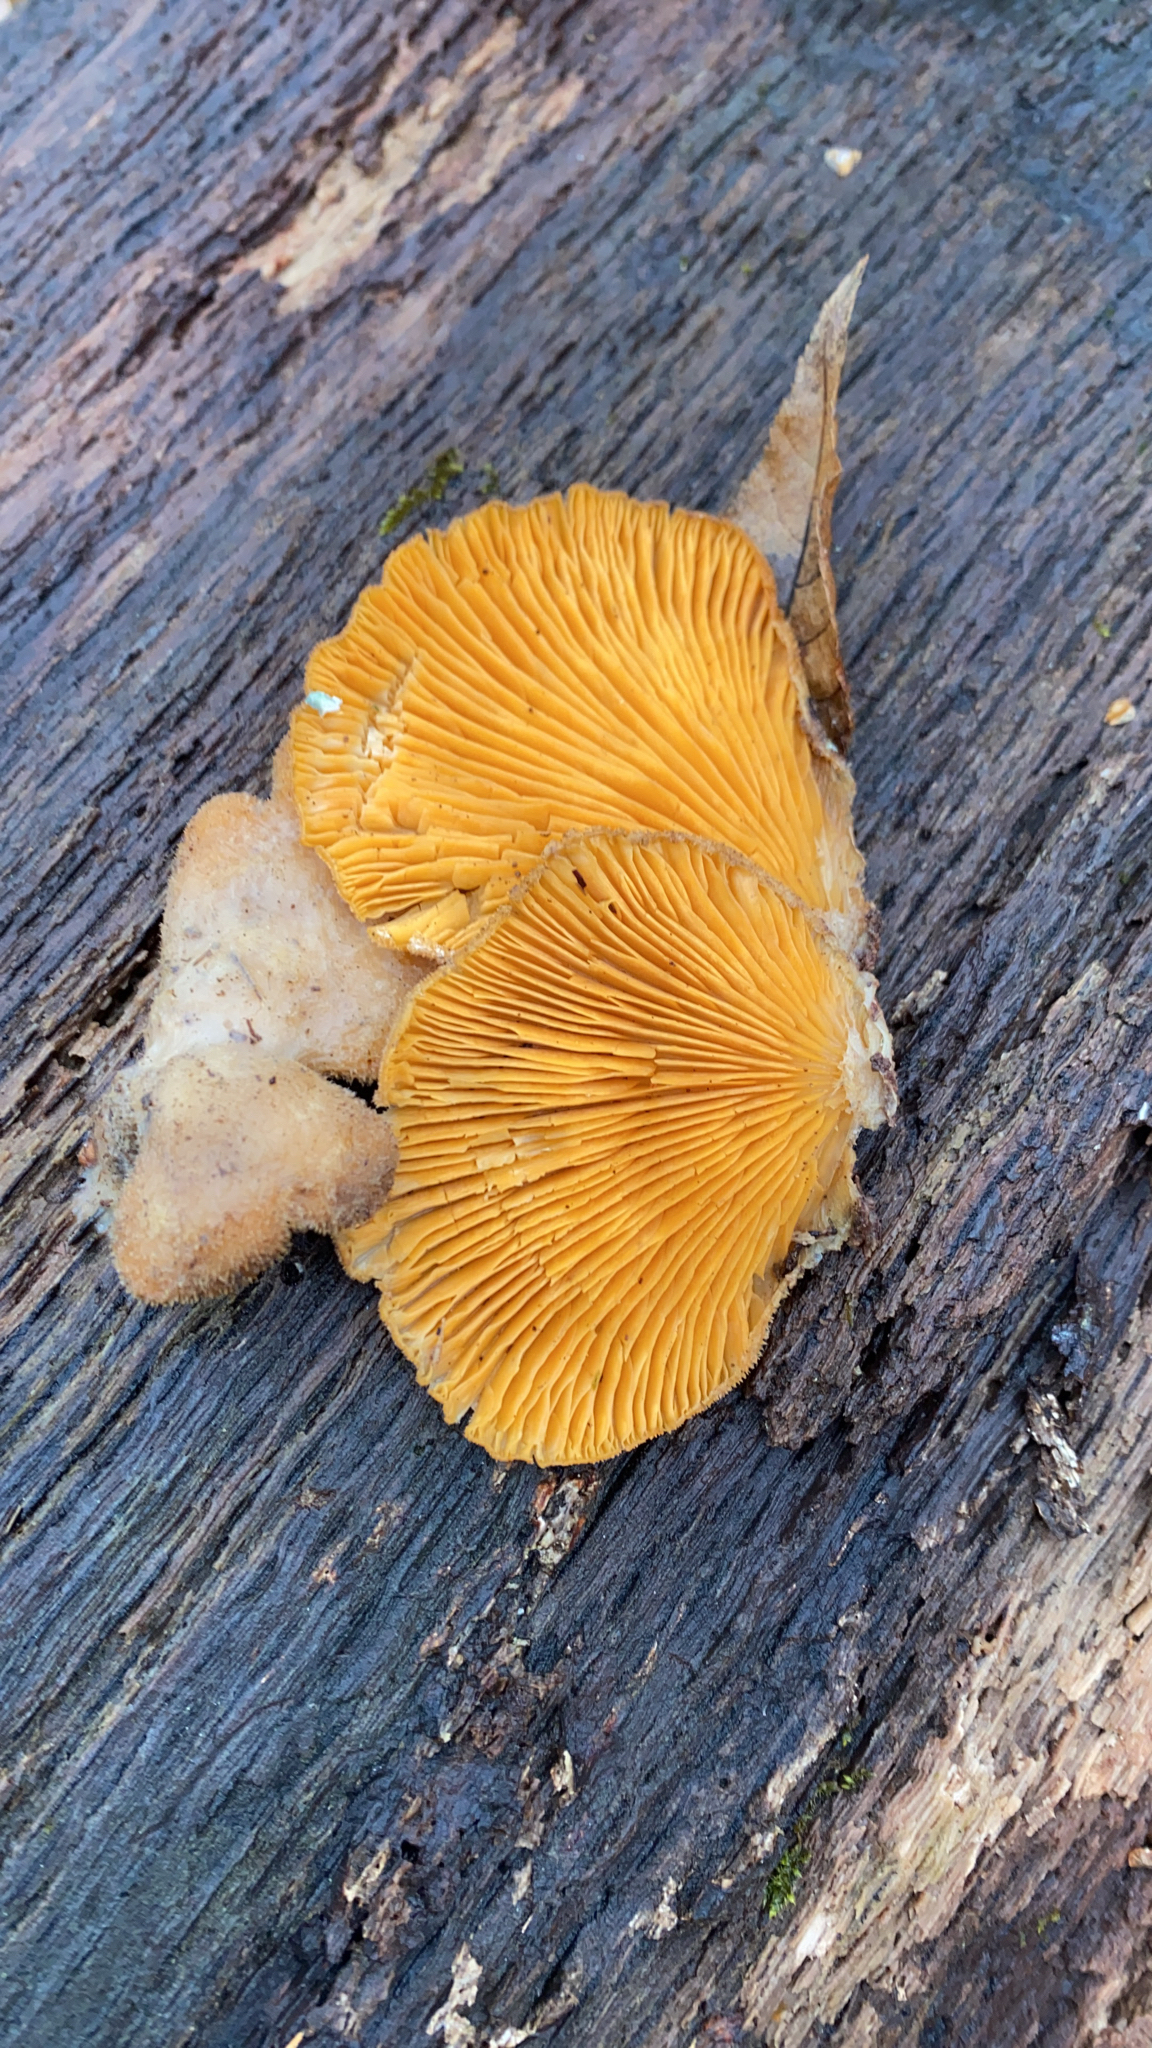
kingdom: Fungi
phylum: Basidiomycota
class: Agaricomycetes
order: Agaricales
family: Phyllotopsidaceae
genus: Phyllotopsis
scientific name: Phyllotopsis nidulans
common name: Orange mock oyster
